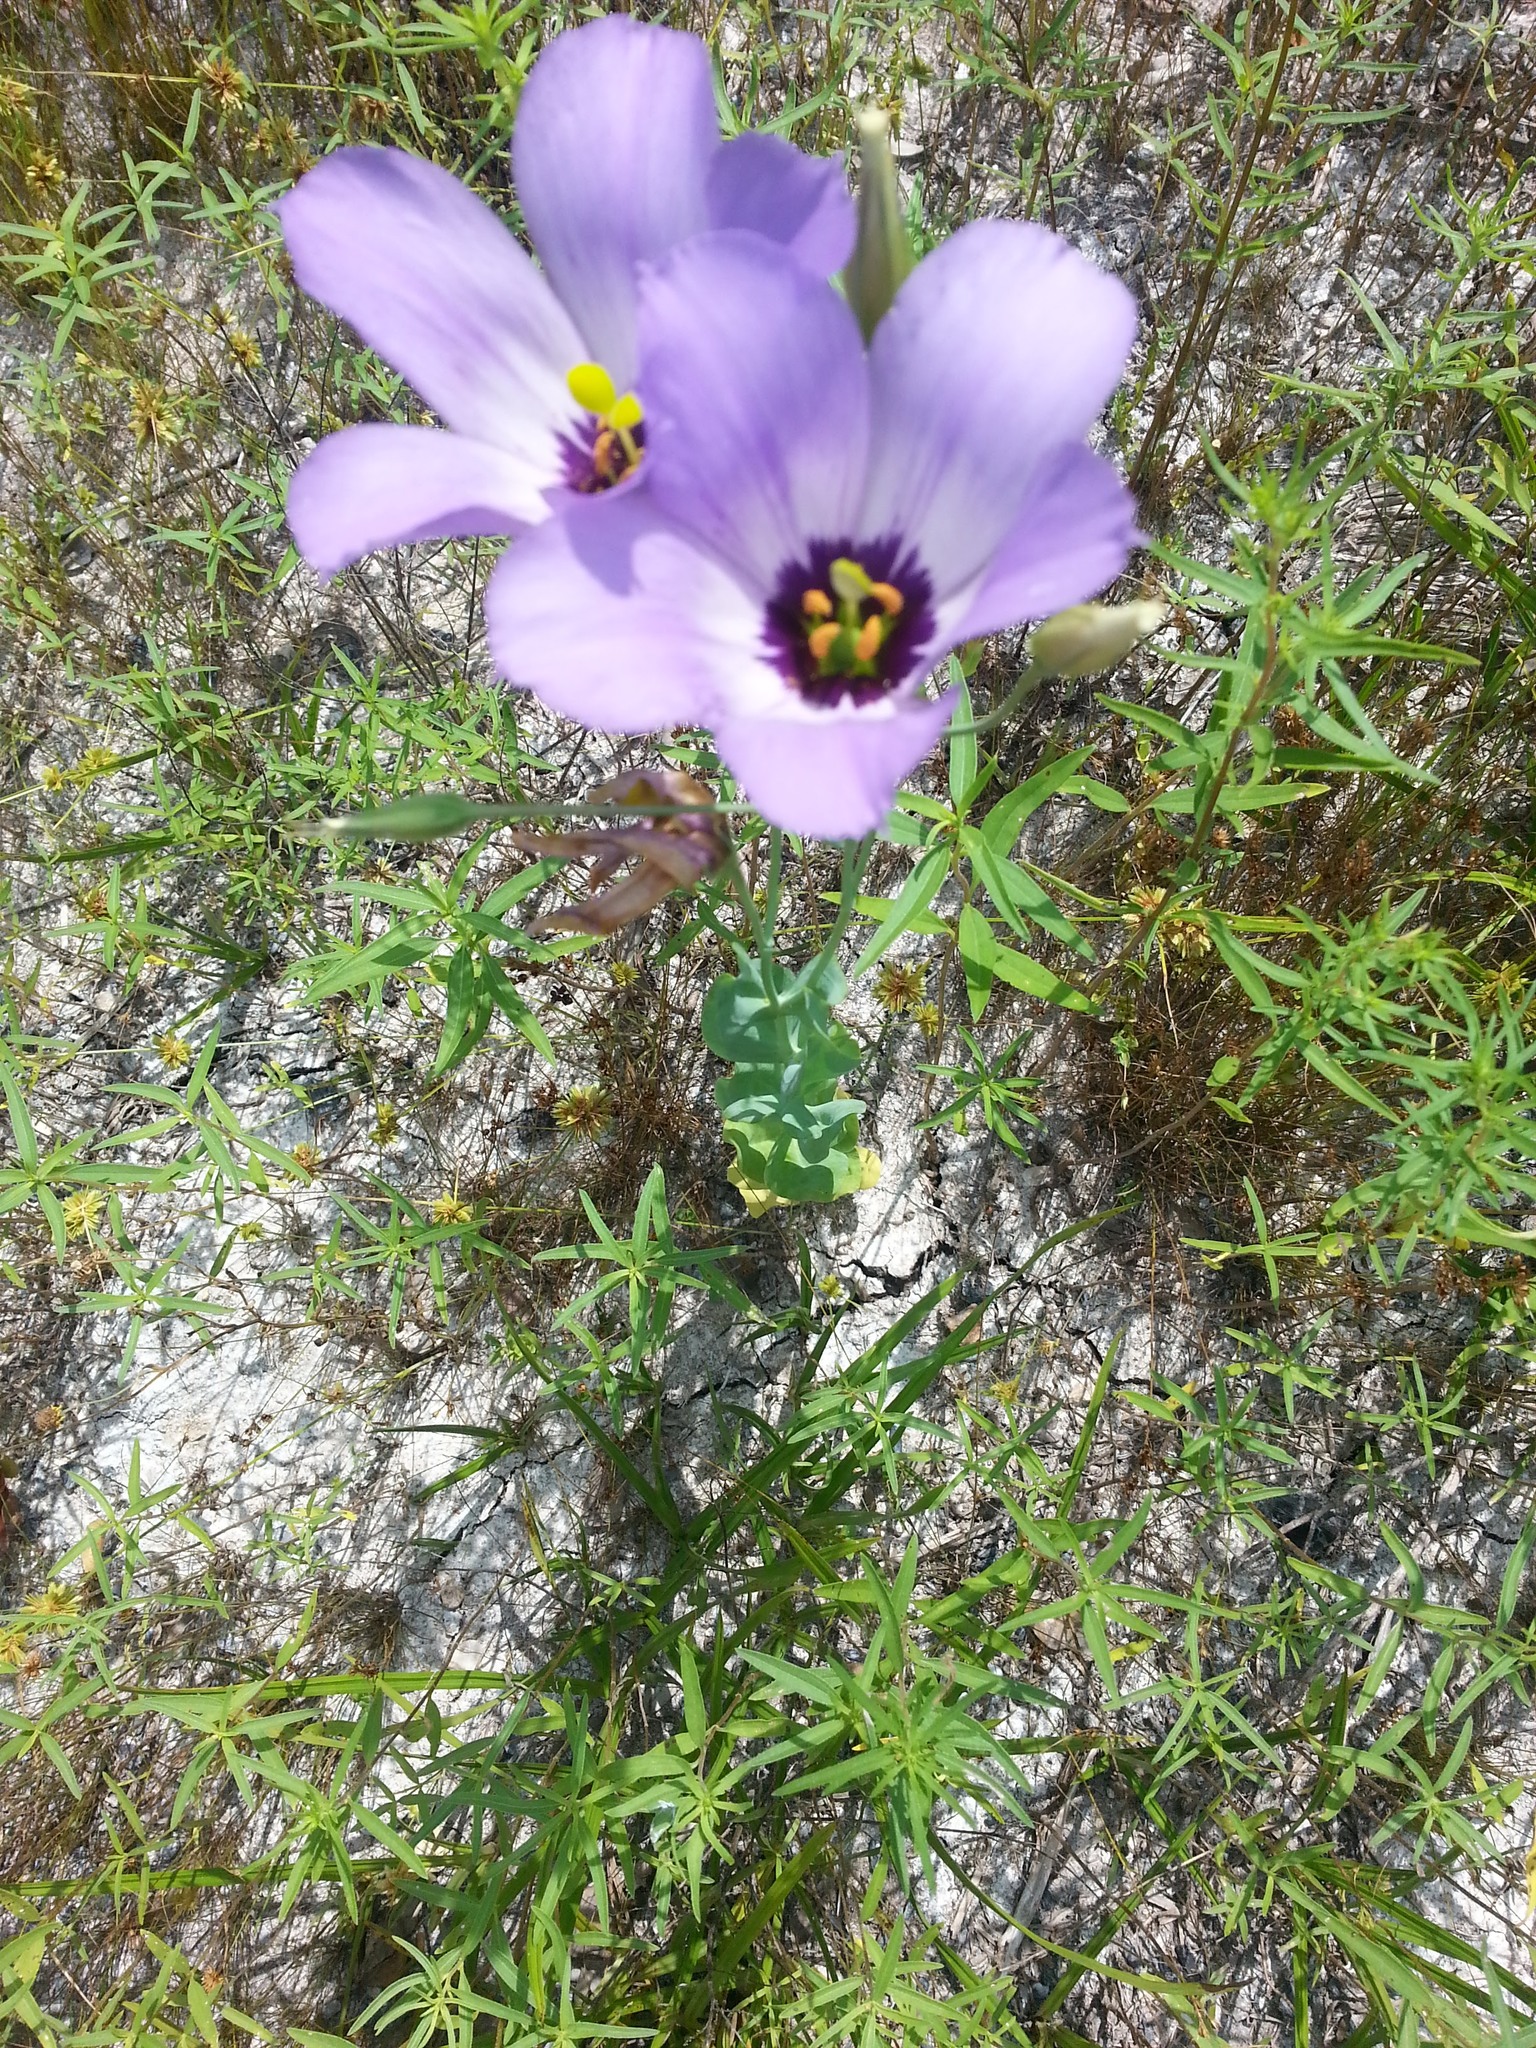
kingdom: Plantae
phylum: Tracheophyta
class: Magnoliopsida
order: Gentianales
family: Gentianaceae
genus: Eustoma
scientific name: Eustoma russellianum
